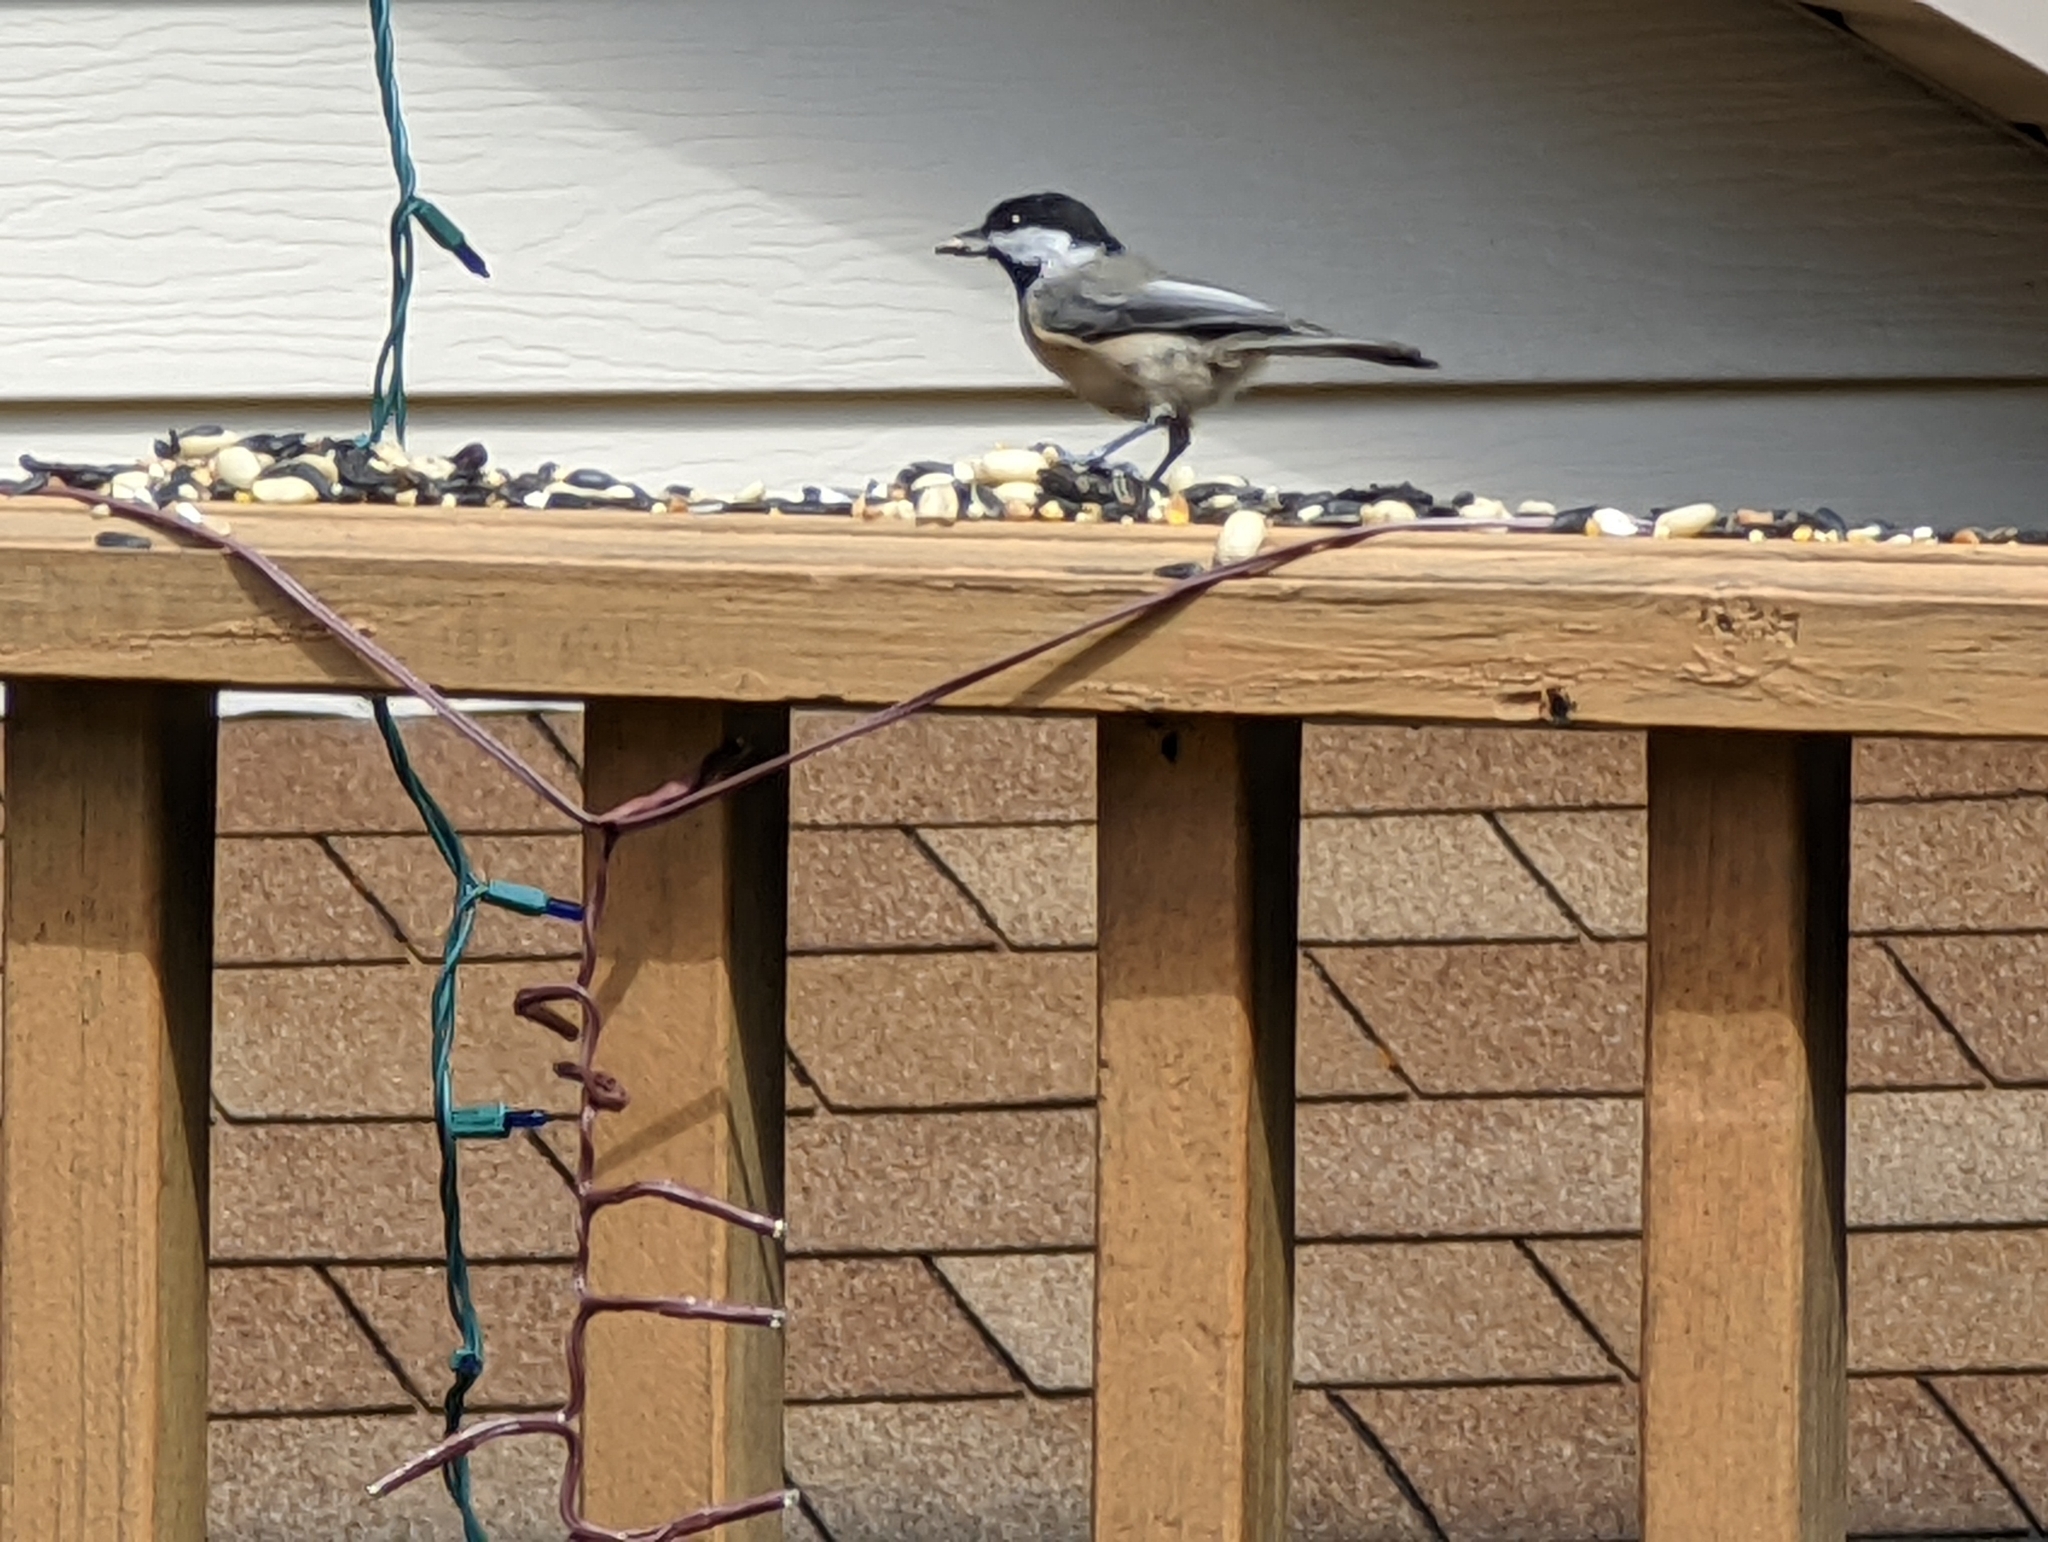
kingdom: Animalia
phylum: Chordata
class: Aves
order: Passeriformes
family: Paridae
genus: Poecile
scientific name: Poecile atricapillus
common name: Black-capped chickadee
